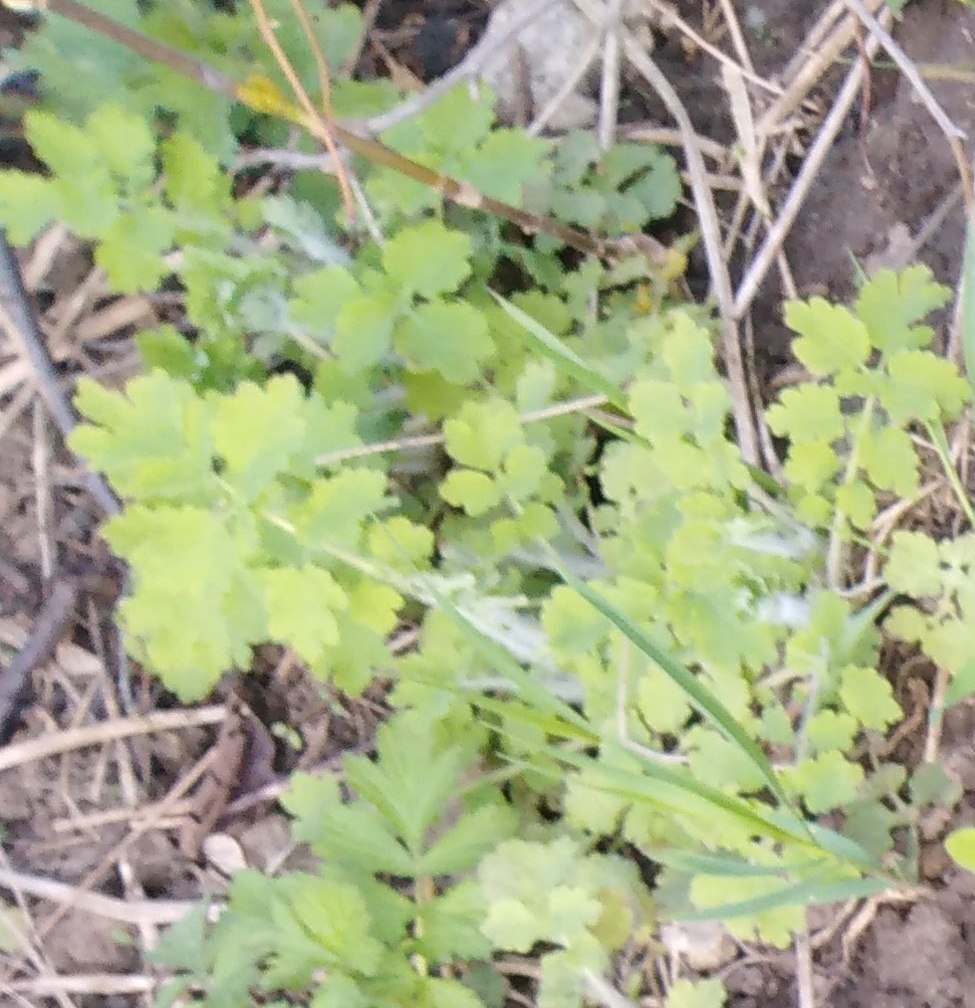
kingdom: Plantae
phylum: Tracheophyta
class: Magnoliopsida
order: Ranunculales
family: Papaveraceae
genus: Chelidonium
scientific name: Chelidonium majus
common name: Greater celandine
